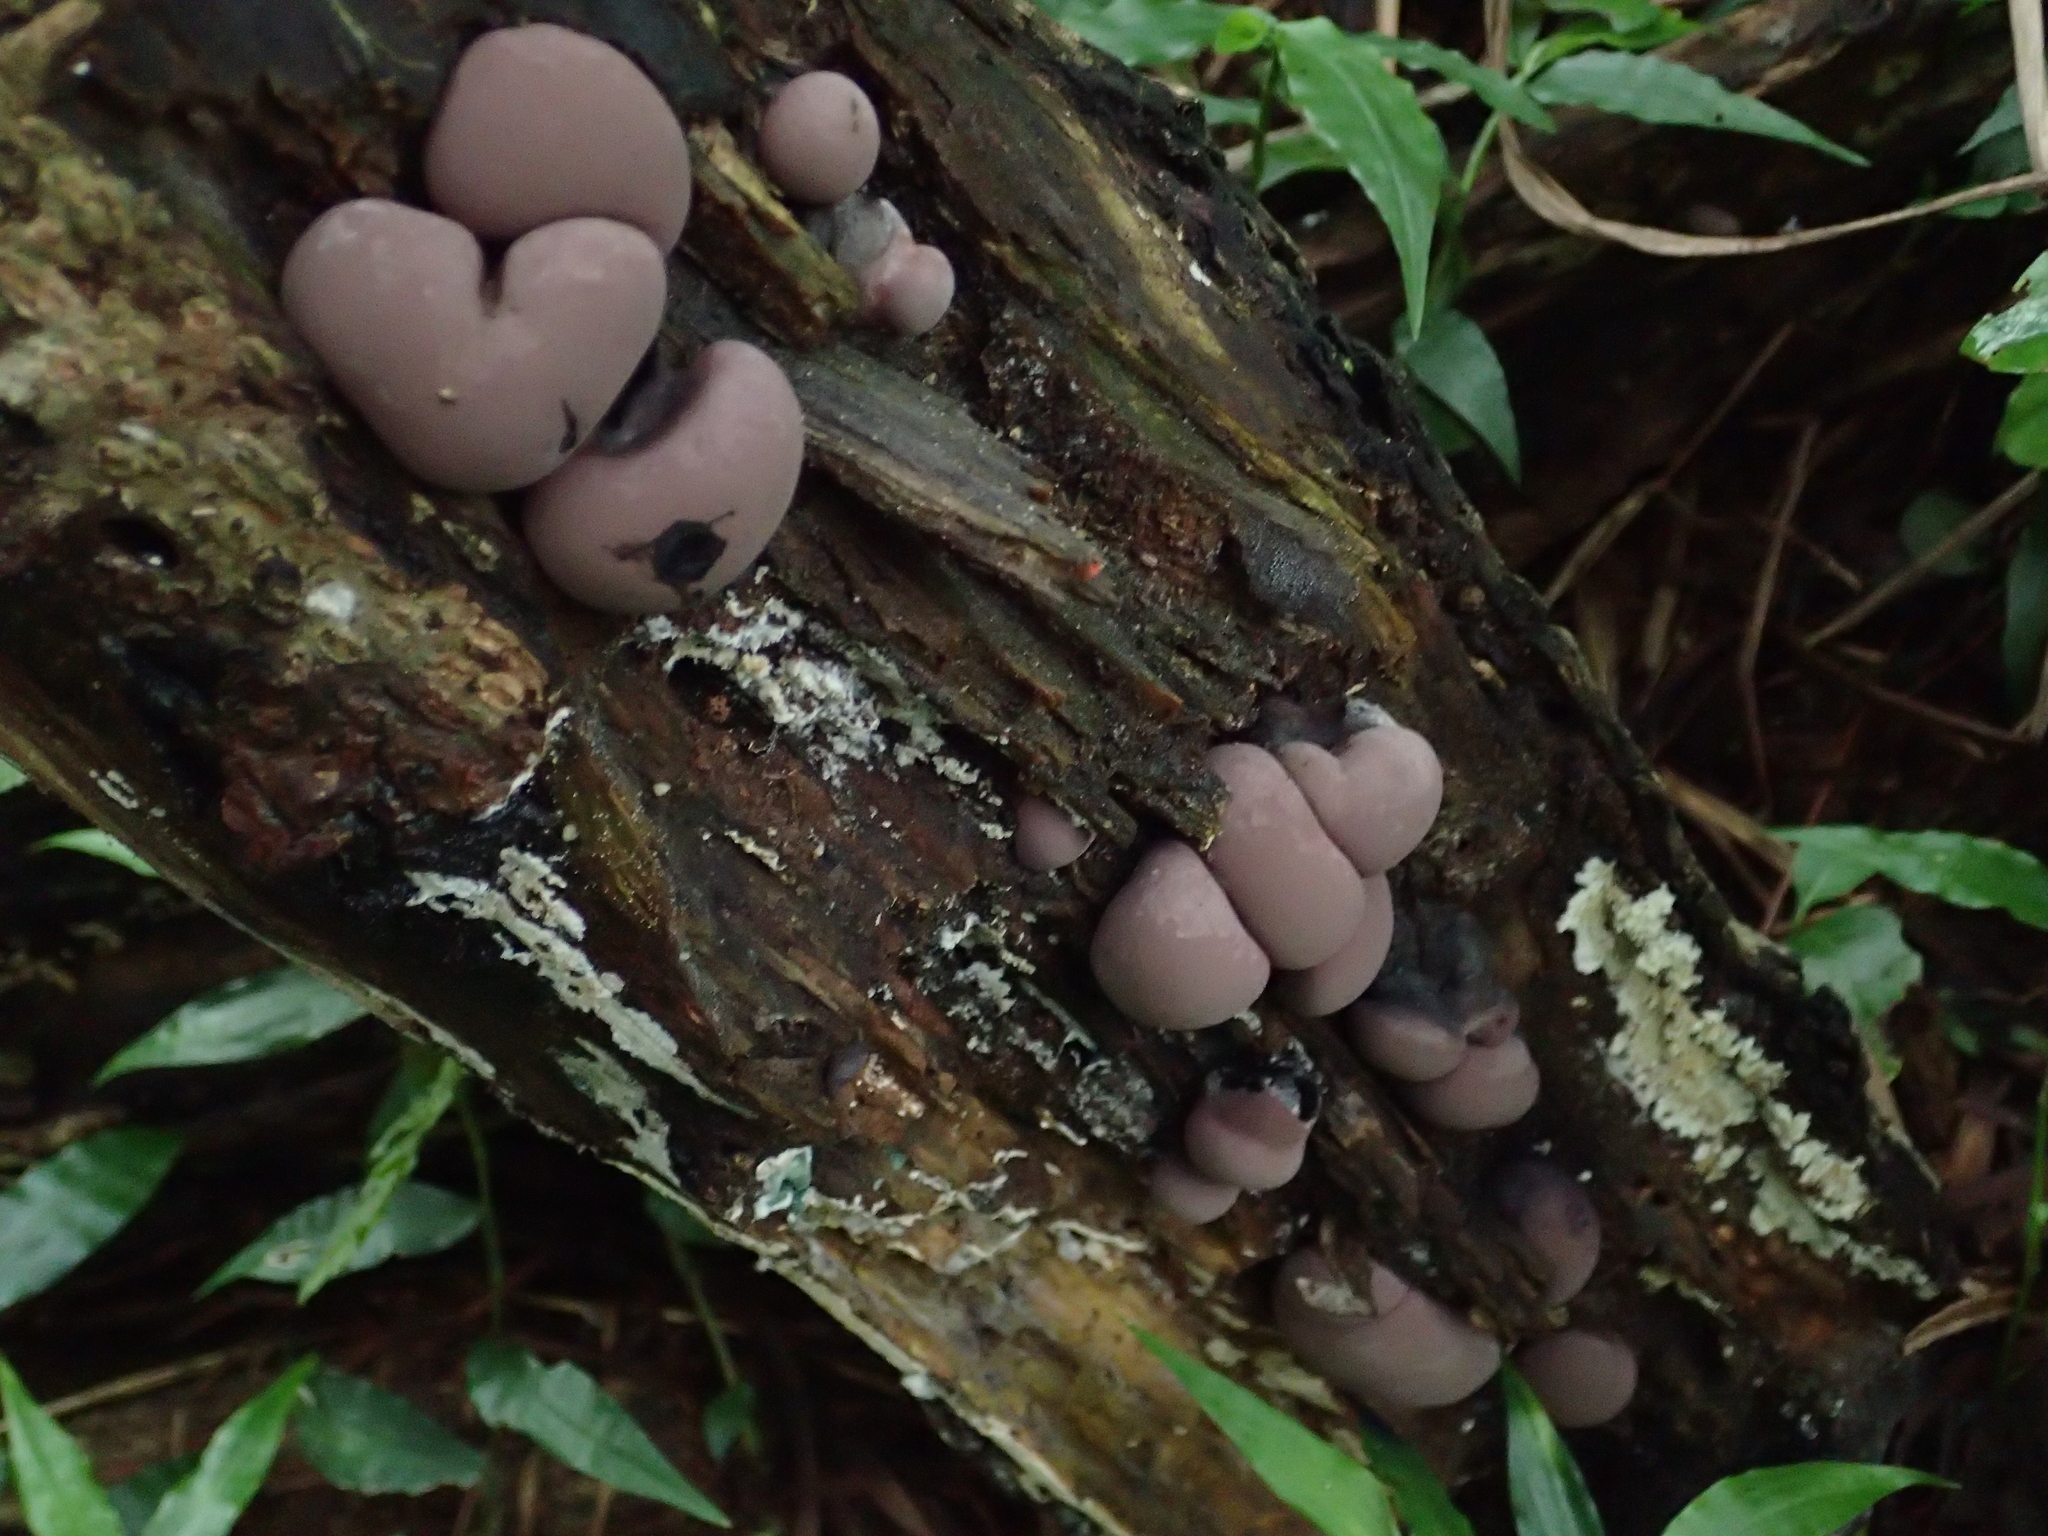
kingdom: Protozoa
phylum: Mycetozoa
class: Myxomycetes
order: Cribrariales
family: Tubiferaceae
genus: Lycogala
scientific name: Lycogala epidendrum
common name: Wolf's milk
